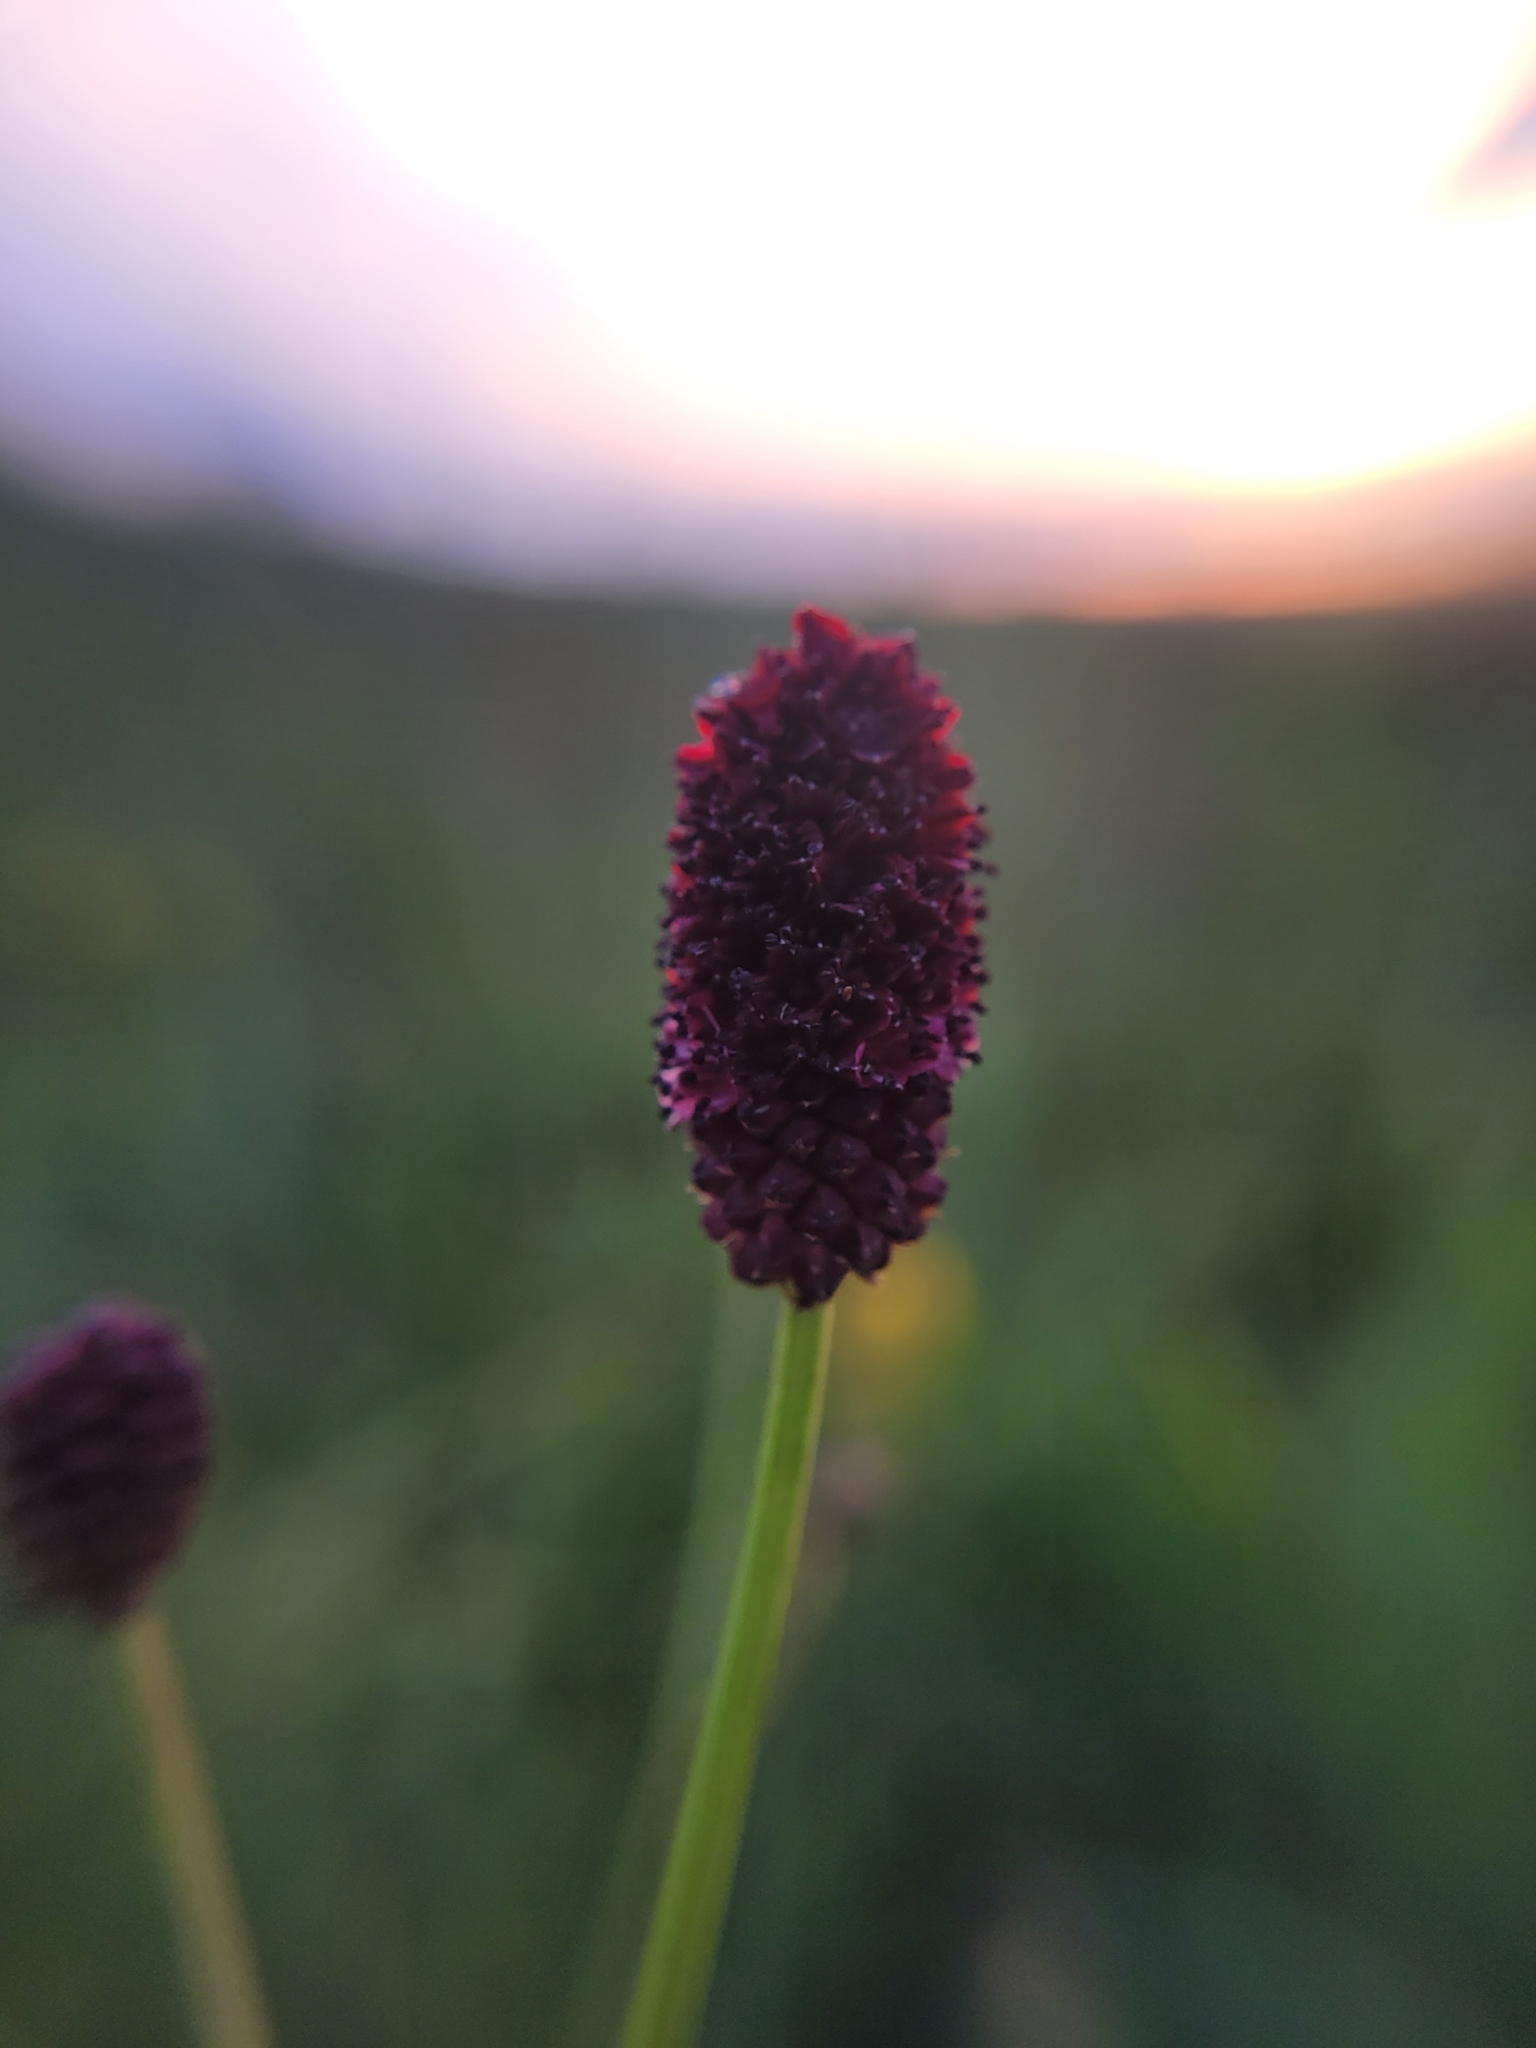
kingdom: Plantae
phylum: Tracheophyta
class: Magnoliopsida
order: Rosales
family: Rosaceae
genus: Sanguisorba
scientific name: Sanguisorba officinalis
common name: Great burnet
